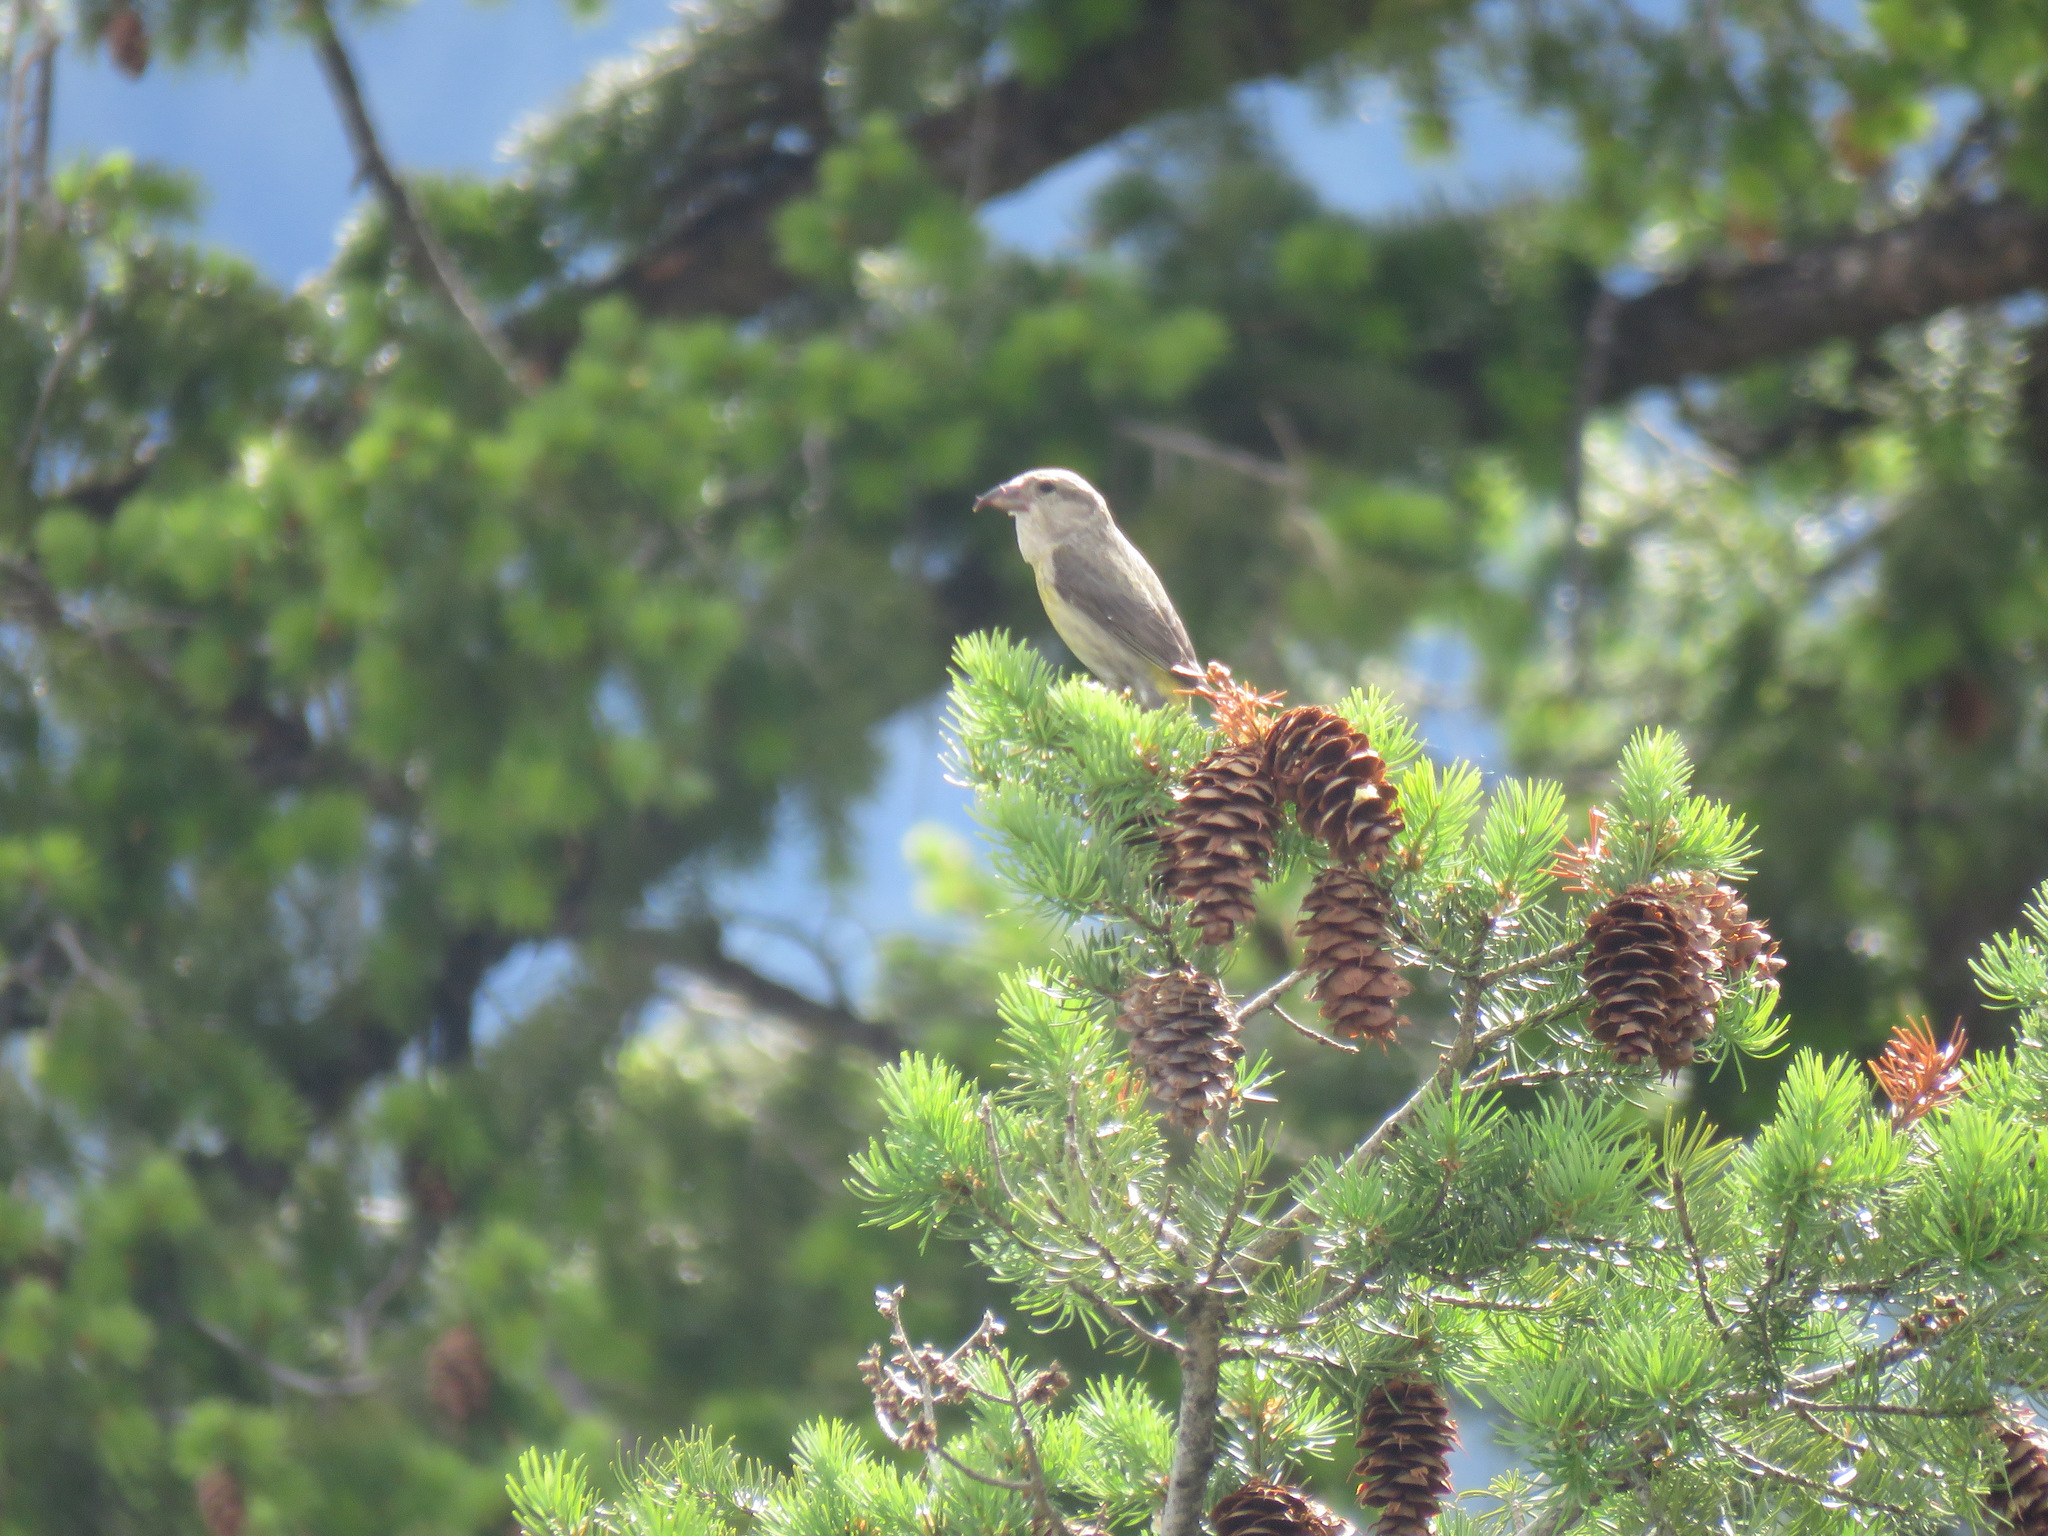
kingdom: Animalia
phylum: Chordata
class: Aves
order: Passeriformes
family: Fringillidae
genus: Loxia
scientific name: Loxia curvirostra
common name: Red crossbill
